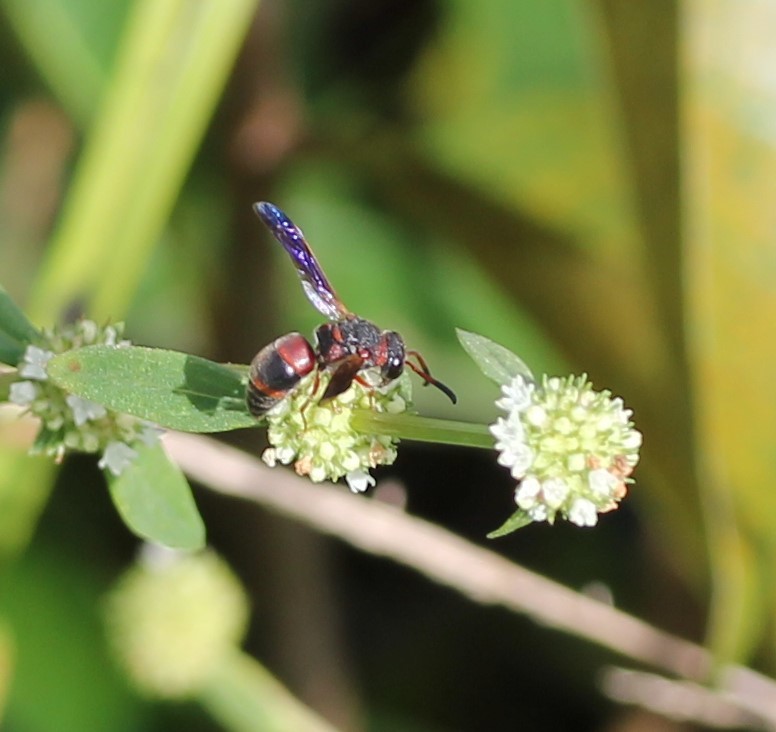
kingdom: Animalia
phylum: Arthropoda
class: Insecta
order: Hymenoptera
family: Eumenidae
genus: Pachodynerus
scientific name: Pachodynerus erynnis
